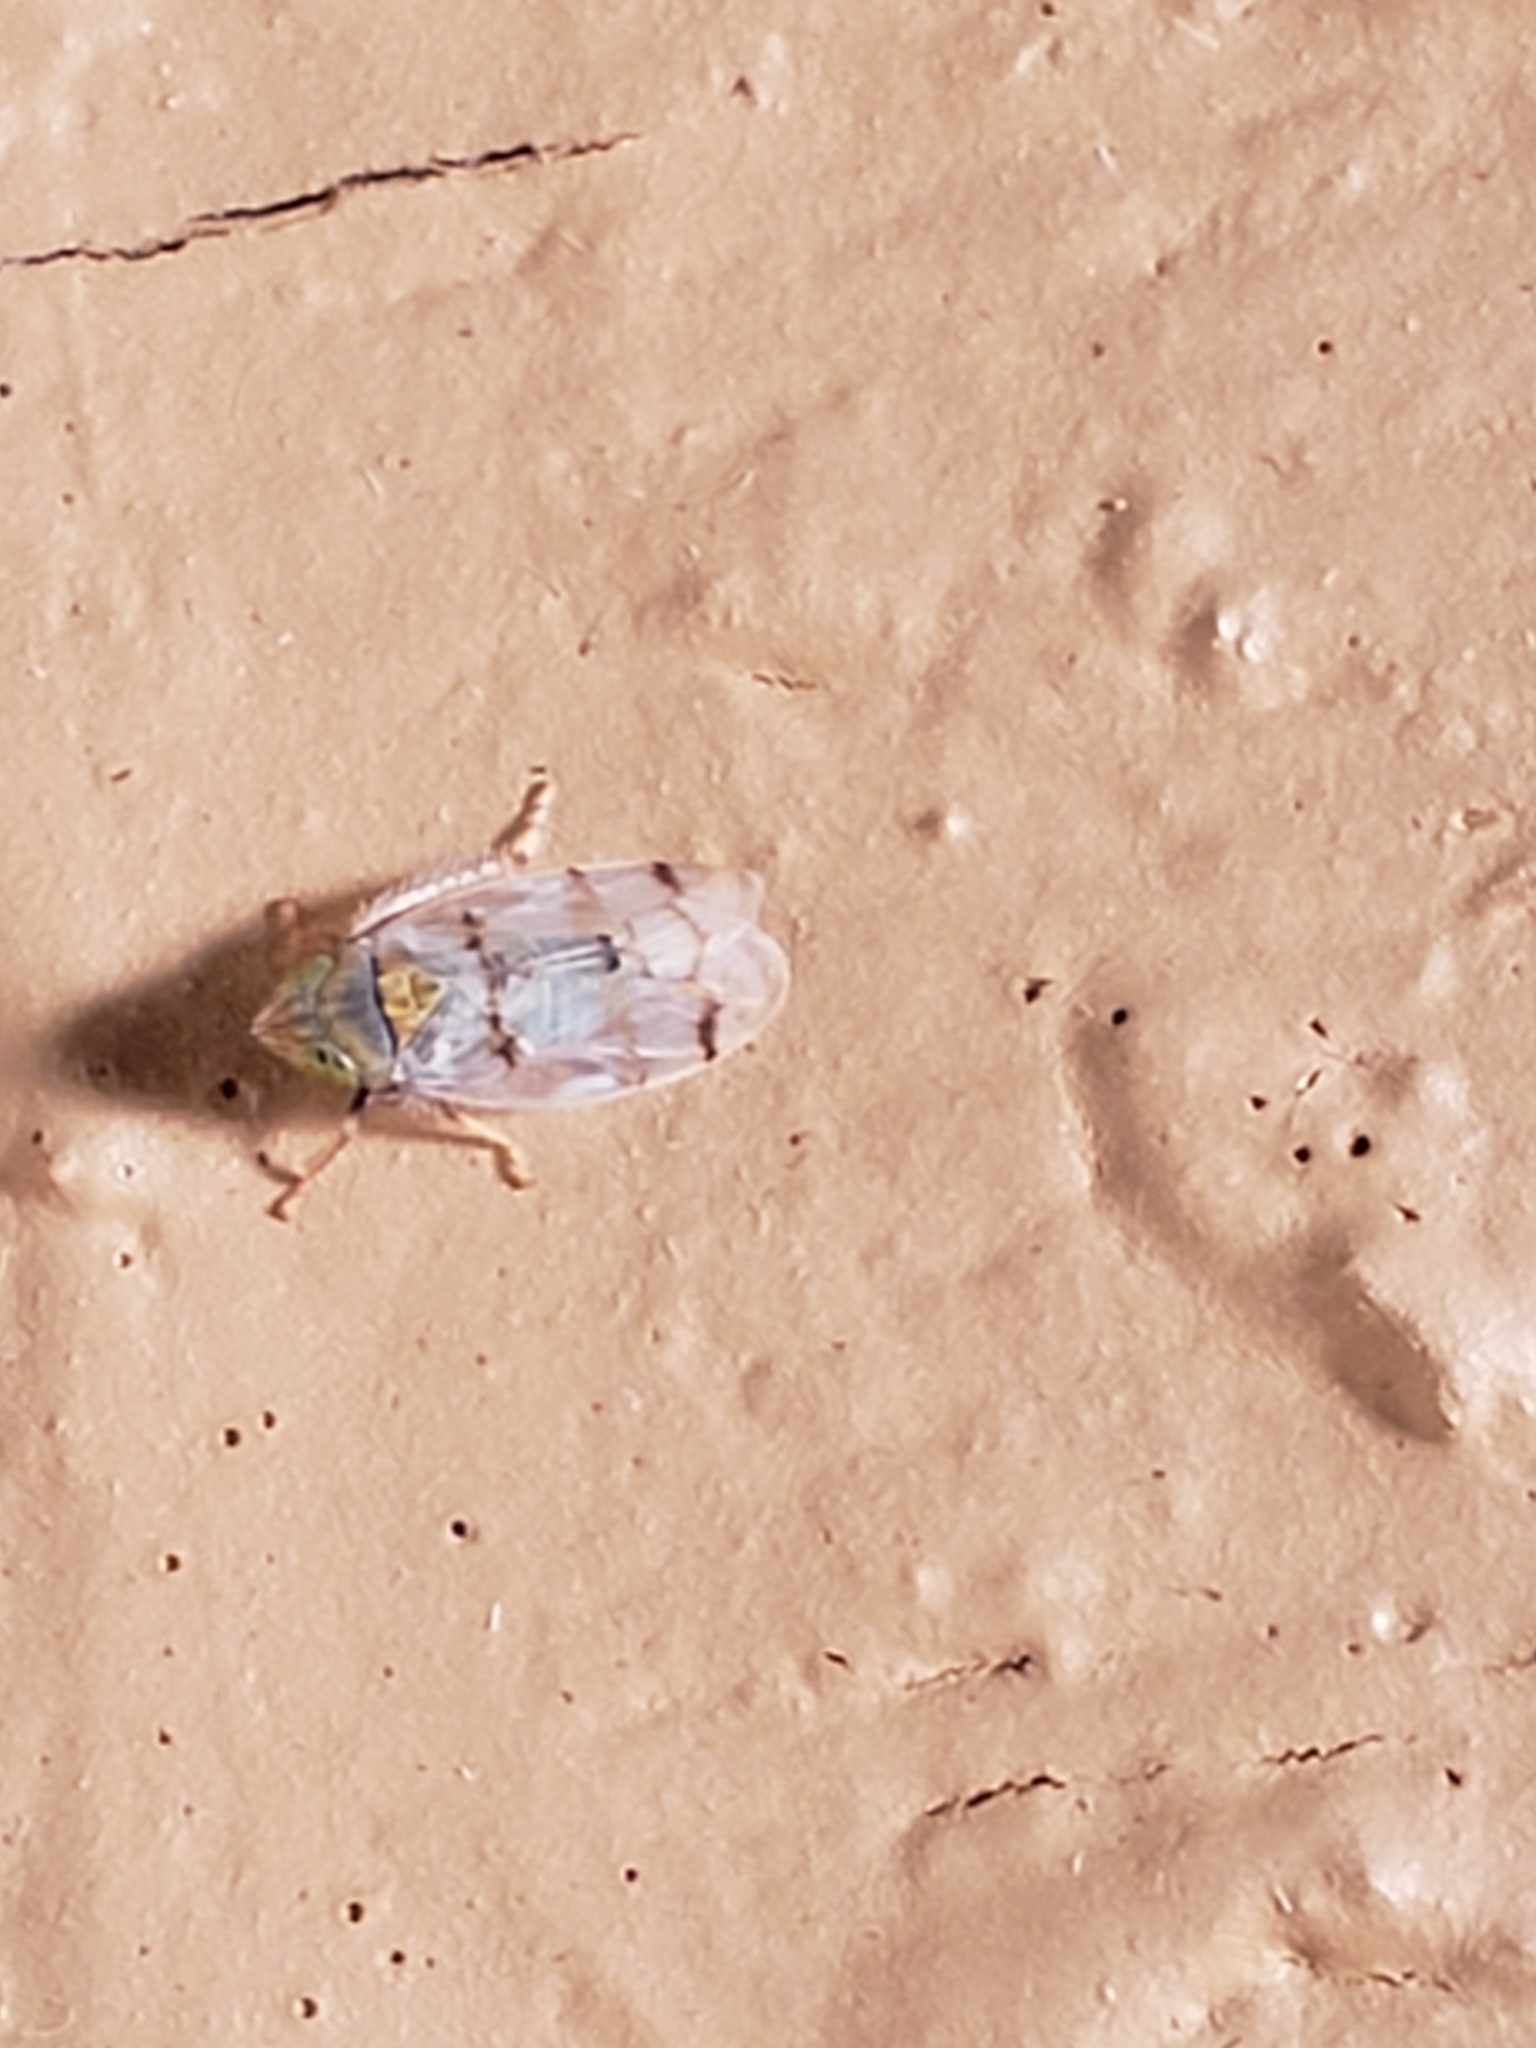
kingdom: Animalia
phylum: Arthropoda
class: Insecta
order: Hemiptera
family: Cicadellidae
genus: Japananus
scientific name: Japananus hyalinus
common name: The japanese maple leafhopper
